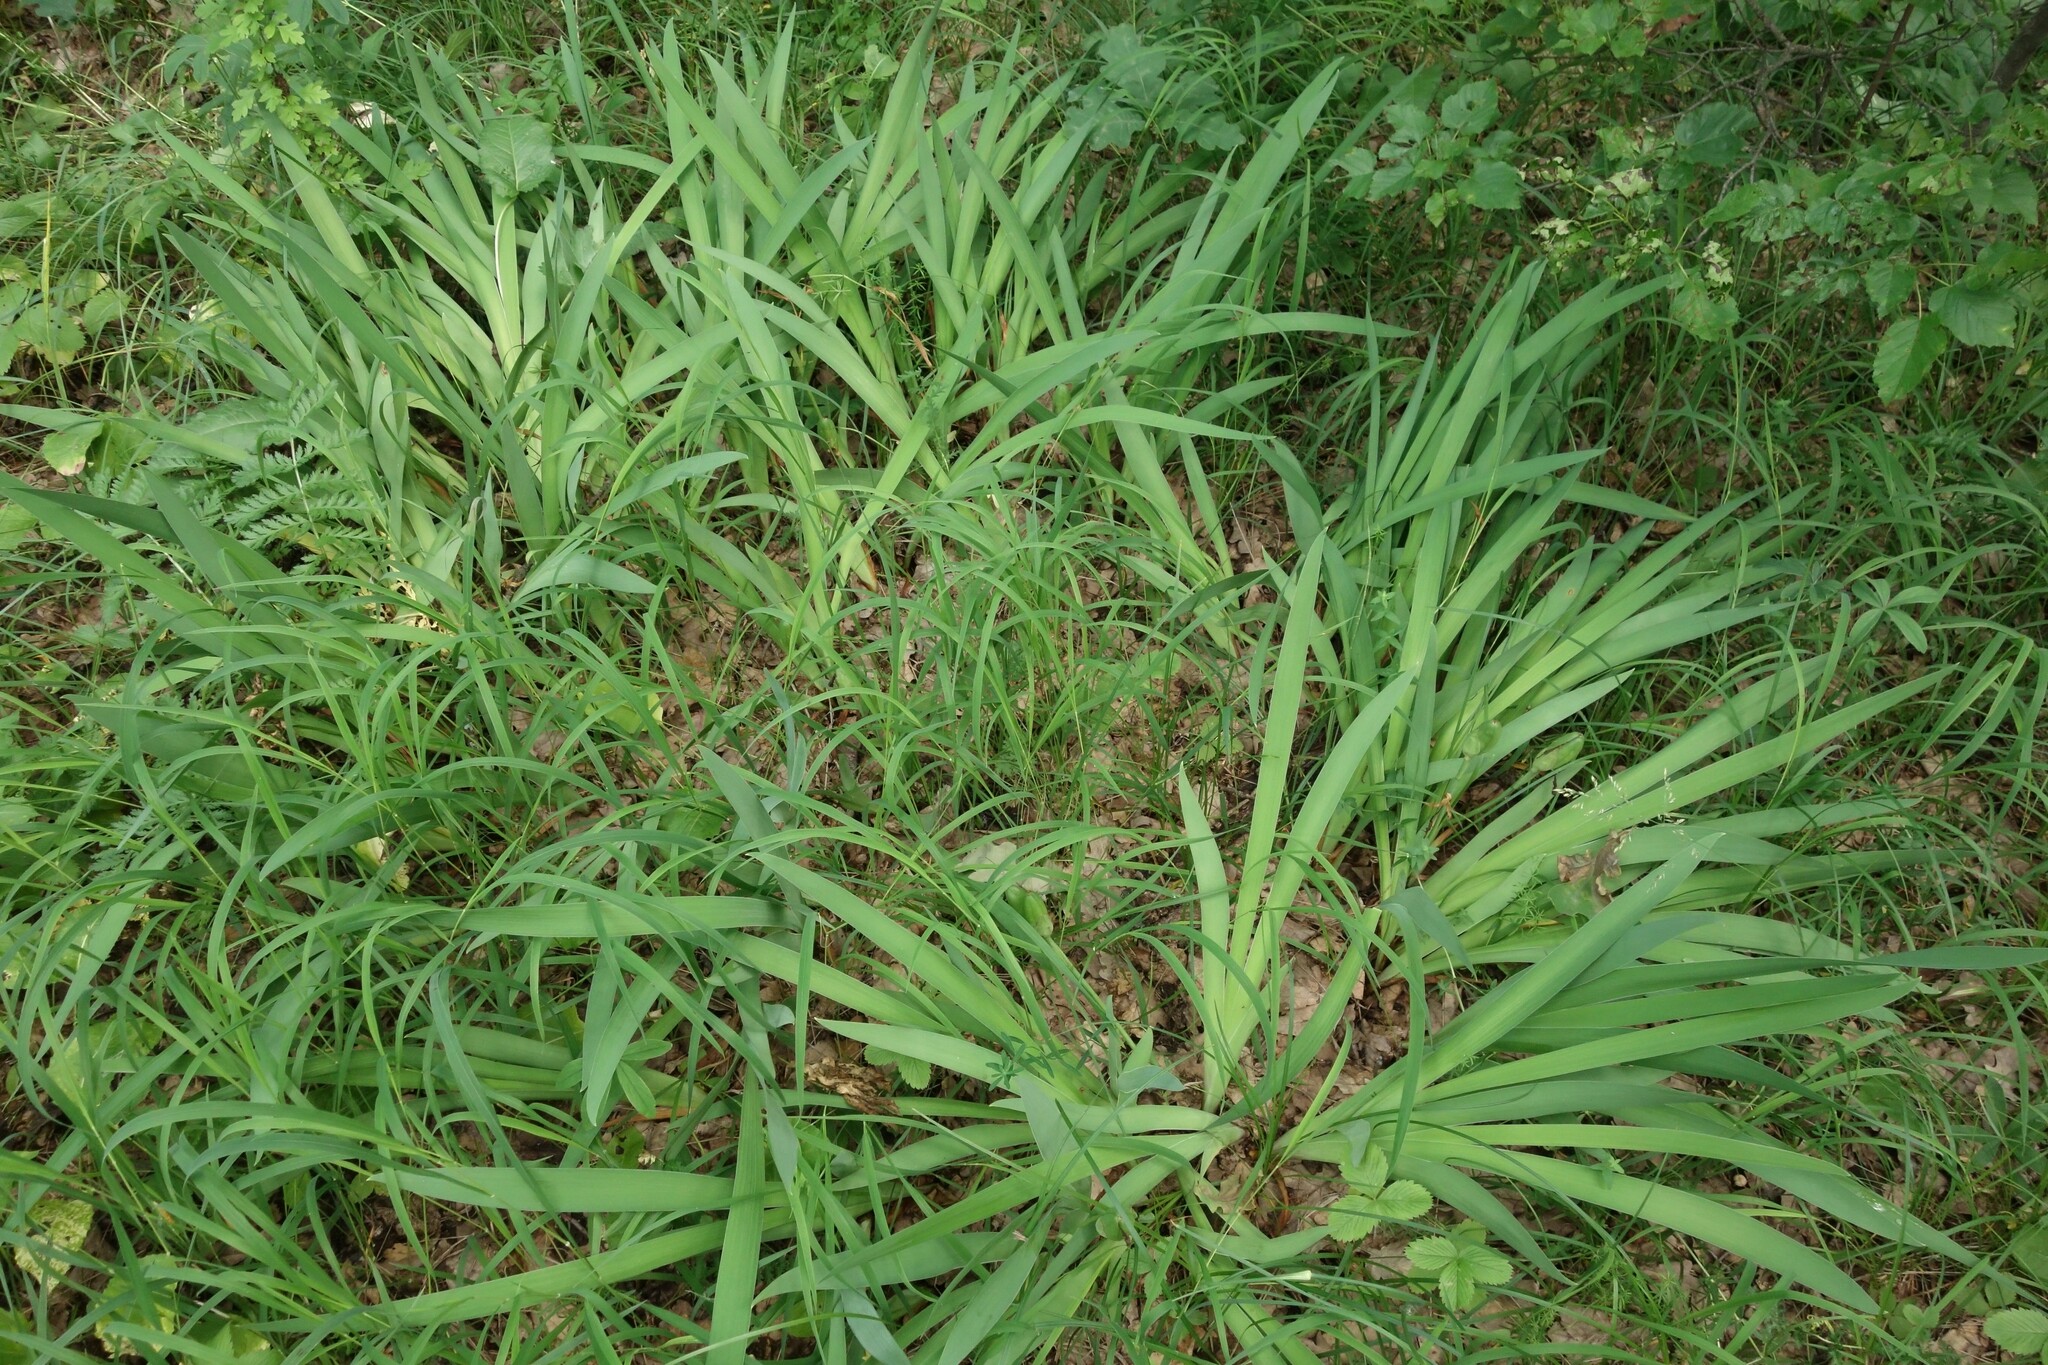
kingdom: Plantae
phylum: Tracheophyta
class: Liliopsida
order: Asparagales
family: Iridaceae
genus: Iris
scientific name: Iris aphylla
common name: Stool iris
